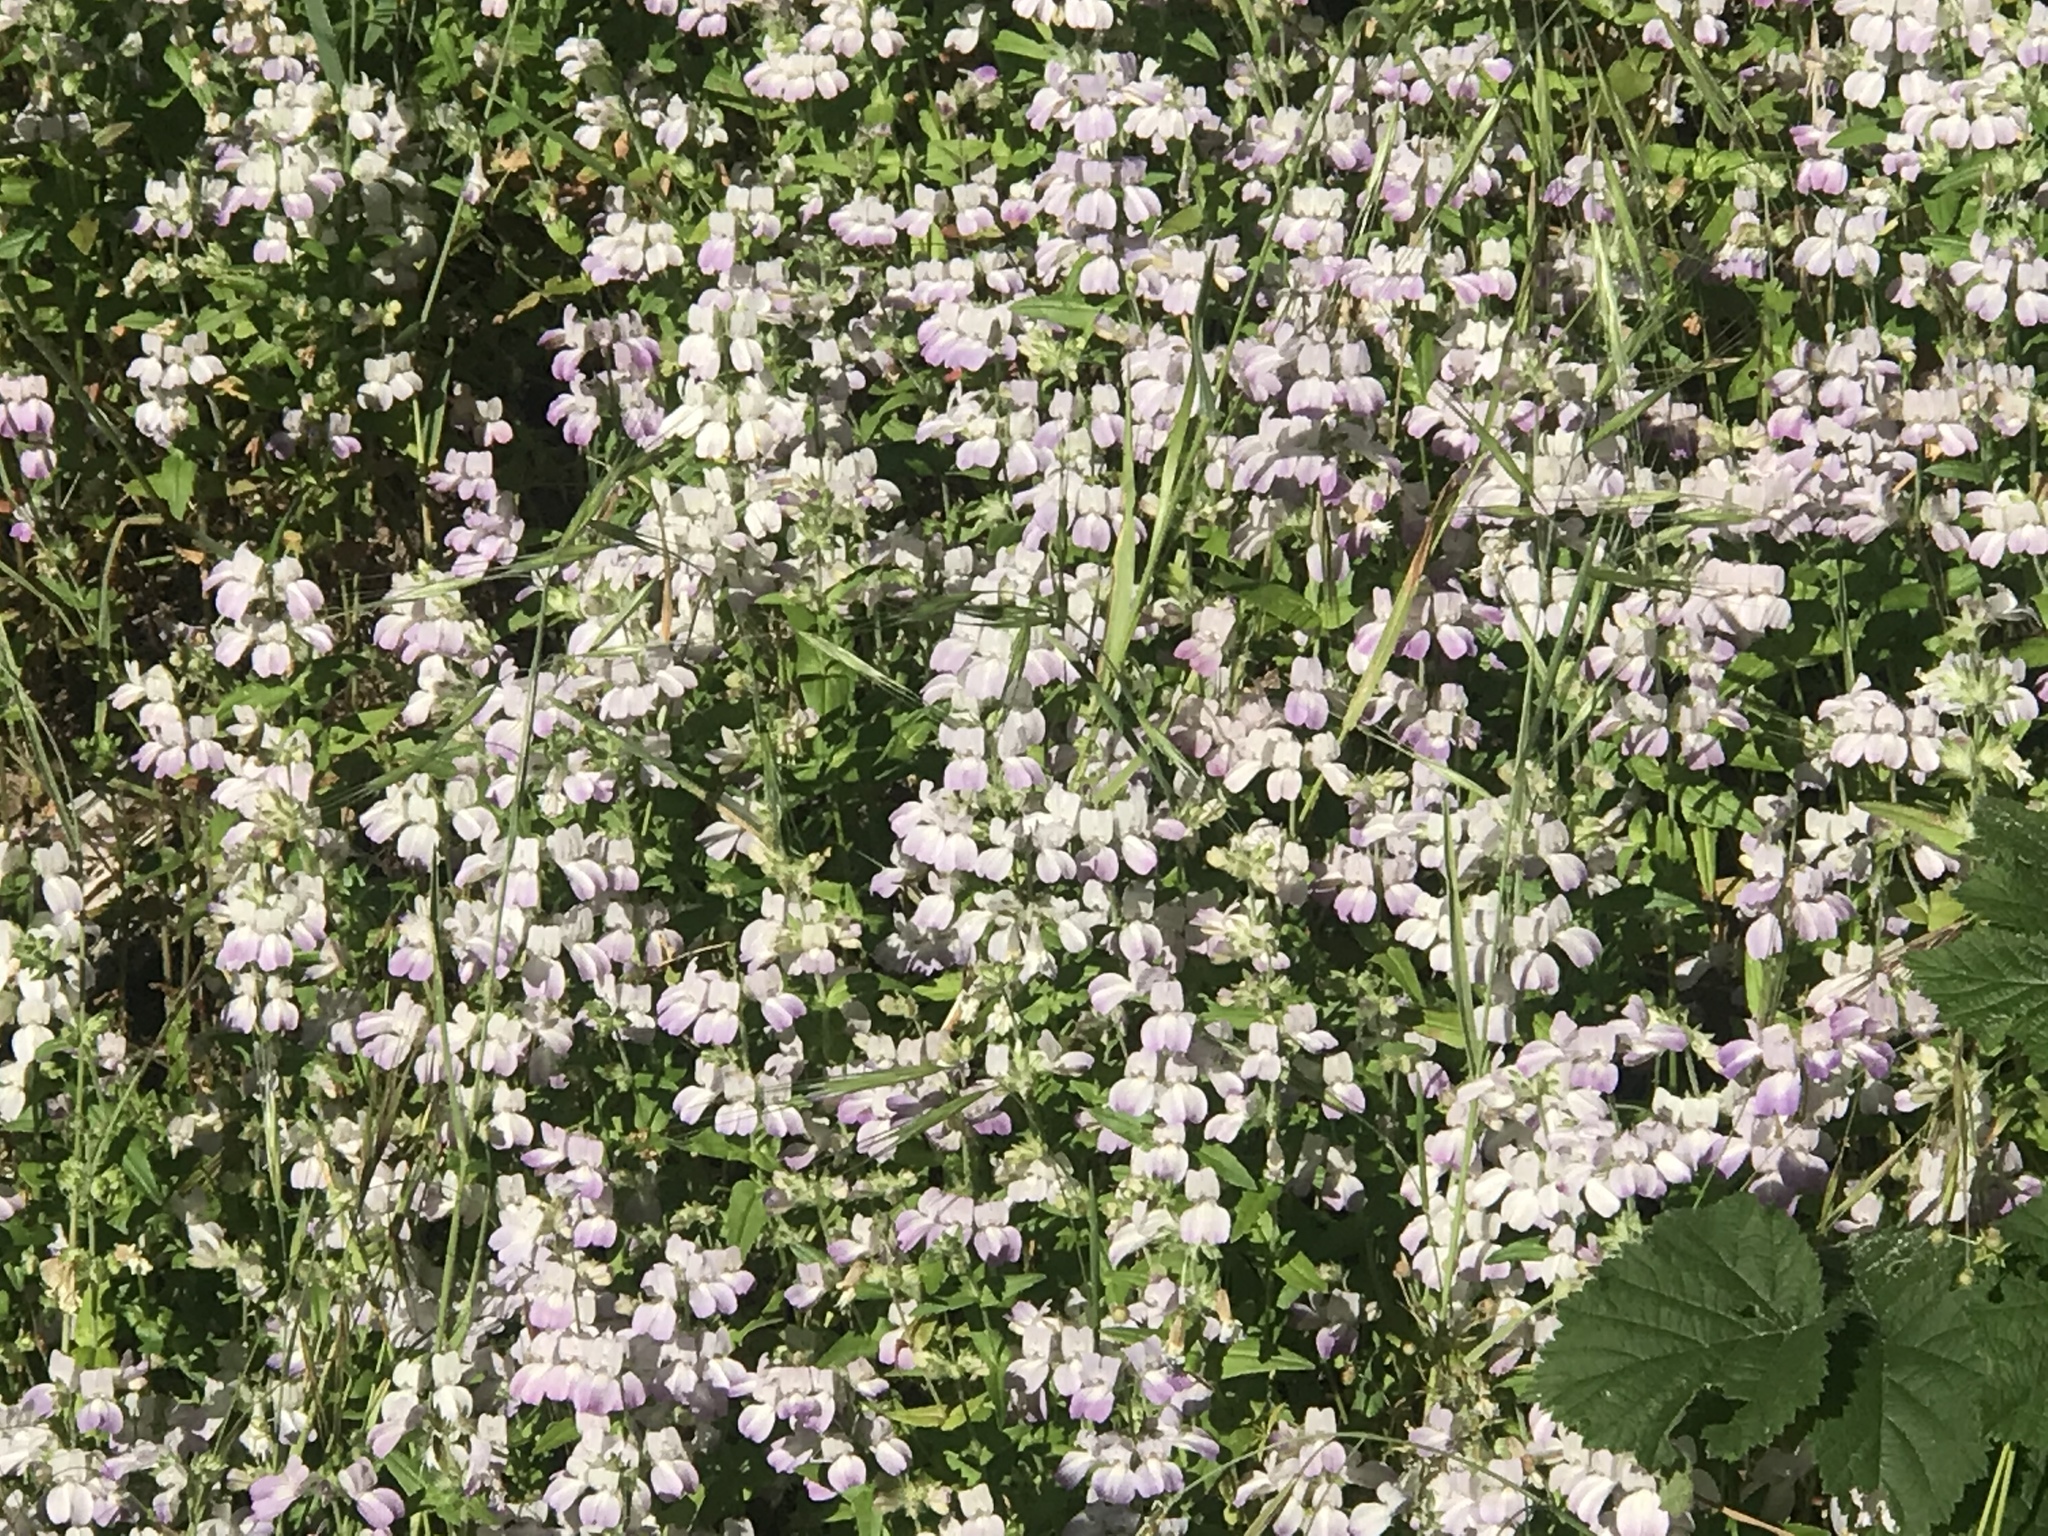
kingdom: Plantae
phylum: Tracheophyta
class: Magnoliopsida
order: Lamiales
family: Plantaginaceae
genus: Collinsia
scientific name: Collinsia heterophylla
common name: Chinese-houses
